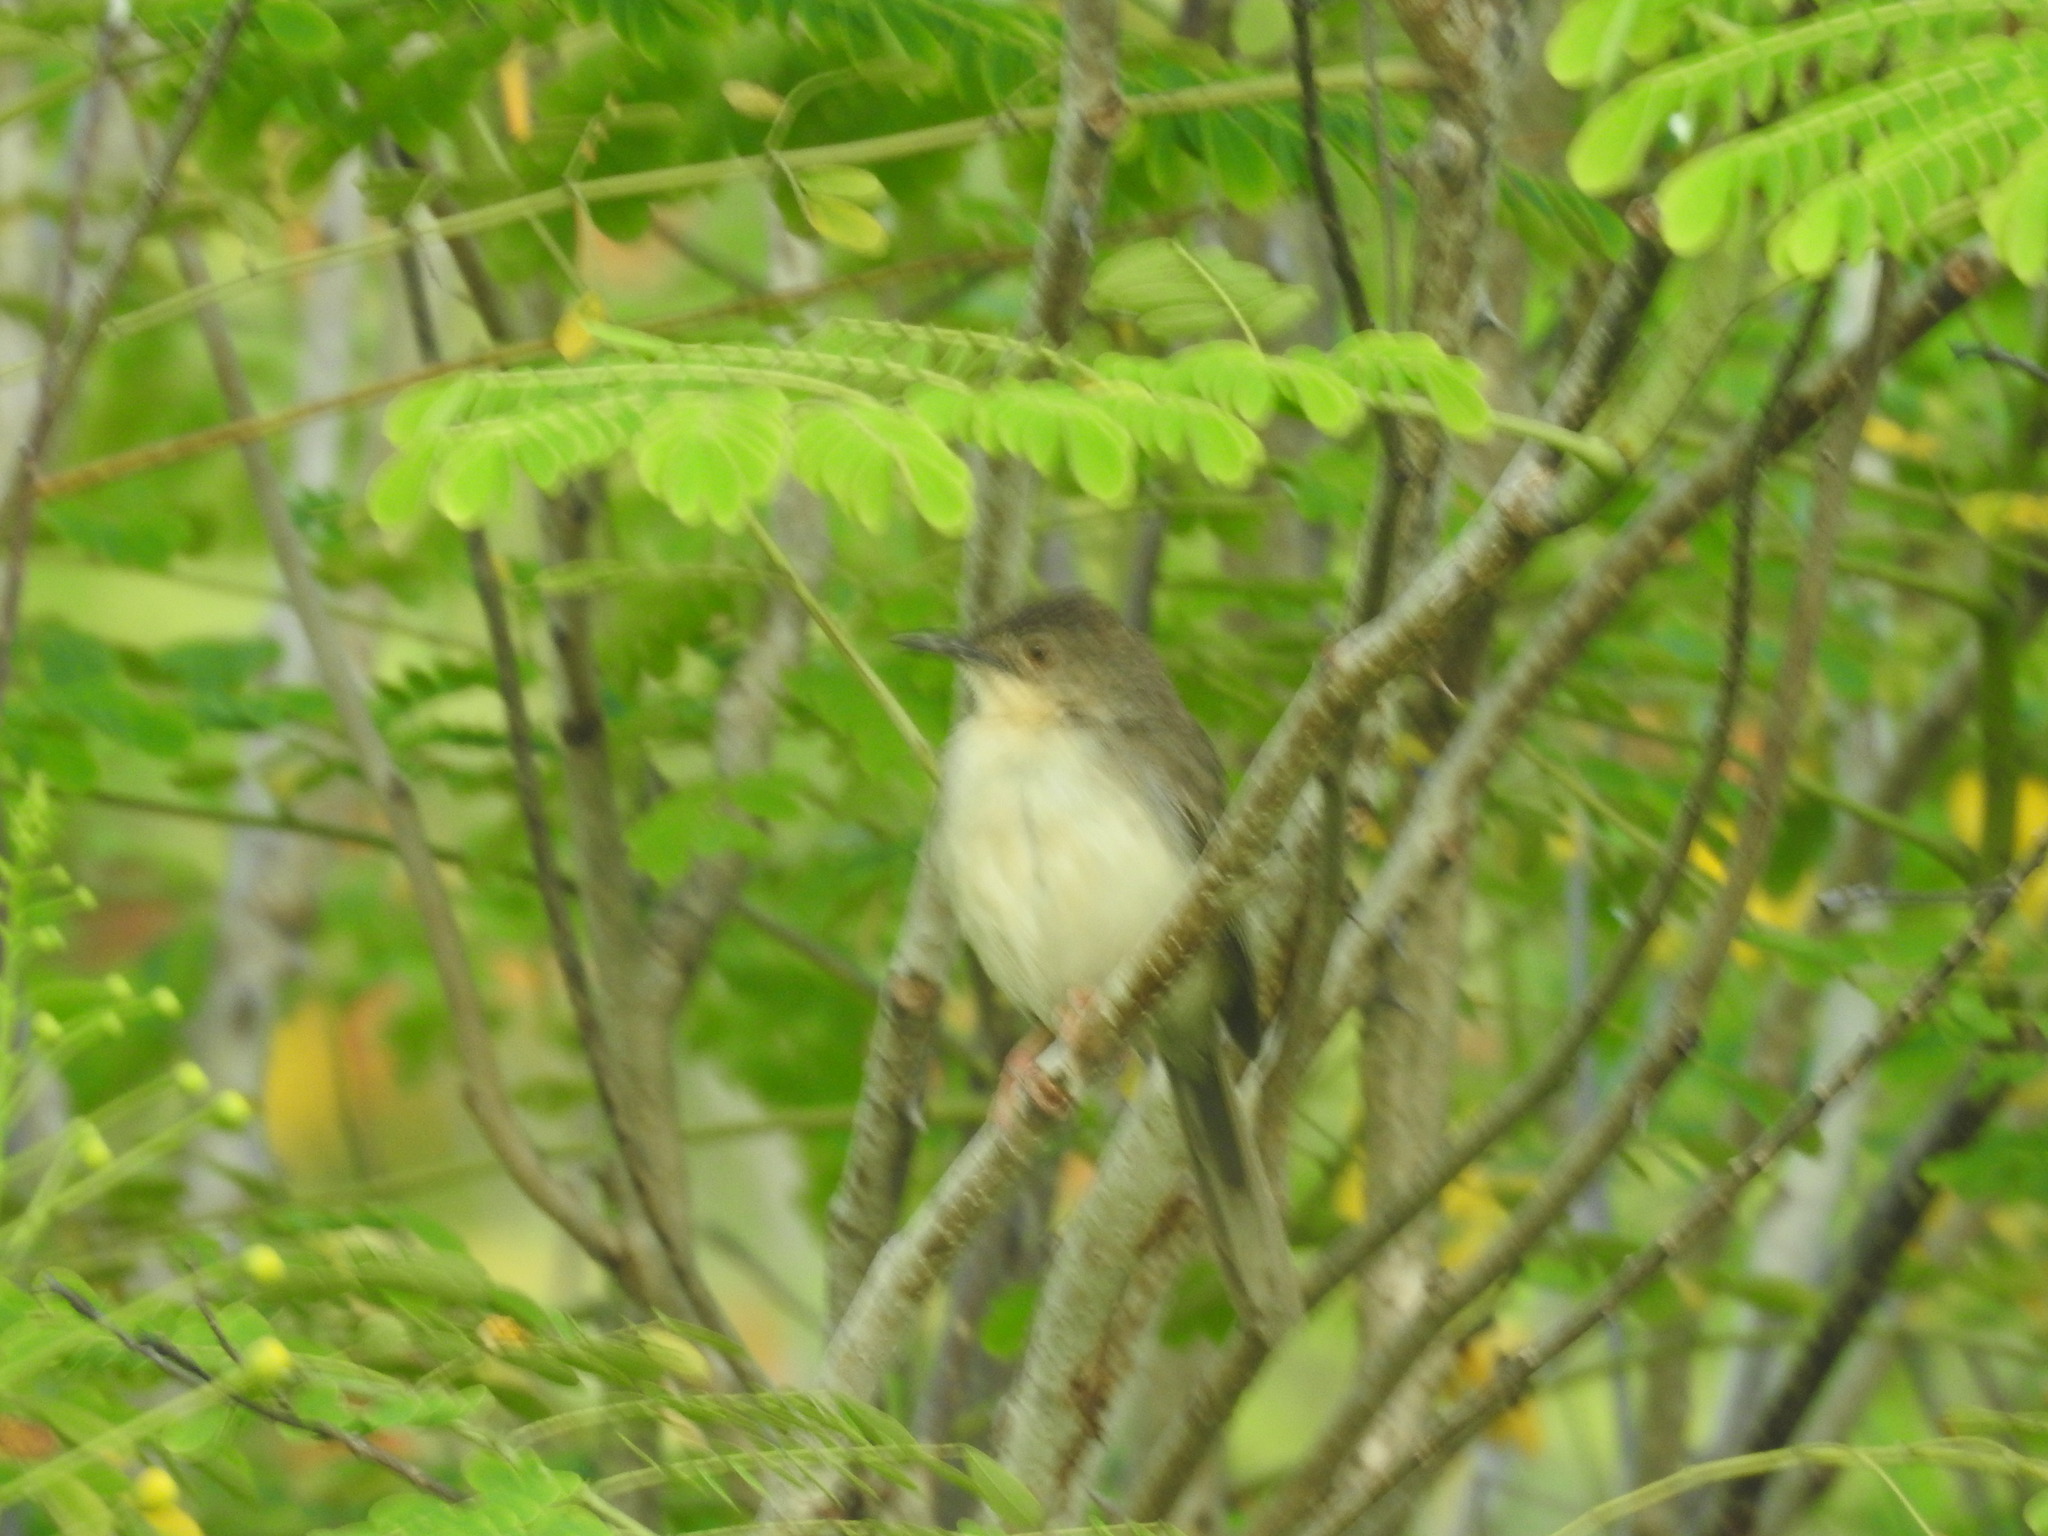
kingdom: Animalia
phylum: Chordata
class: Aves
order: Passeriformes
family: Cisticolidae
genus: Prinia
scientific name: Prinia sylvatica
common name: Jungle prinia
